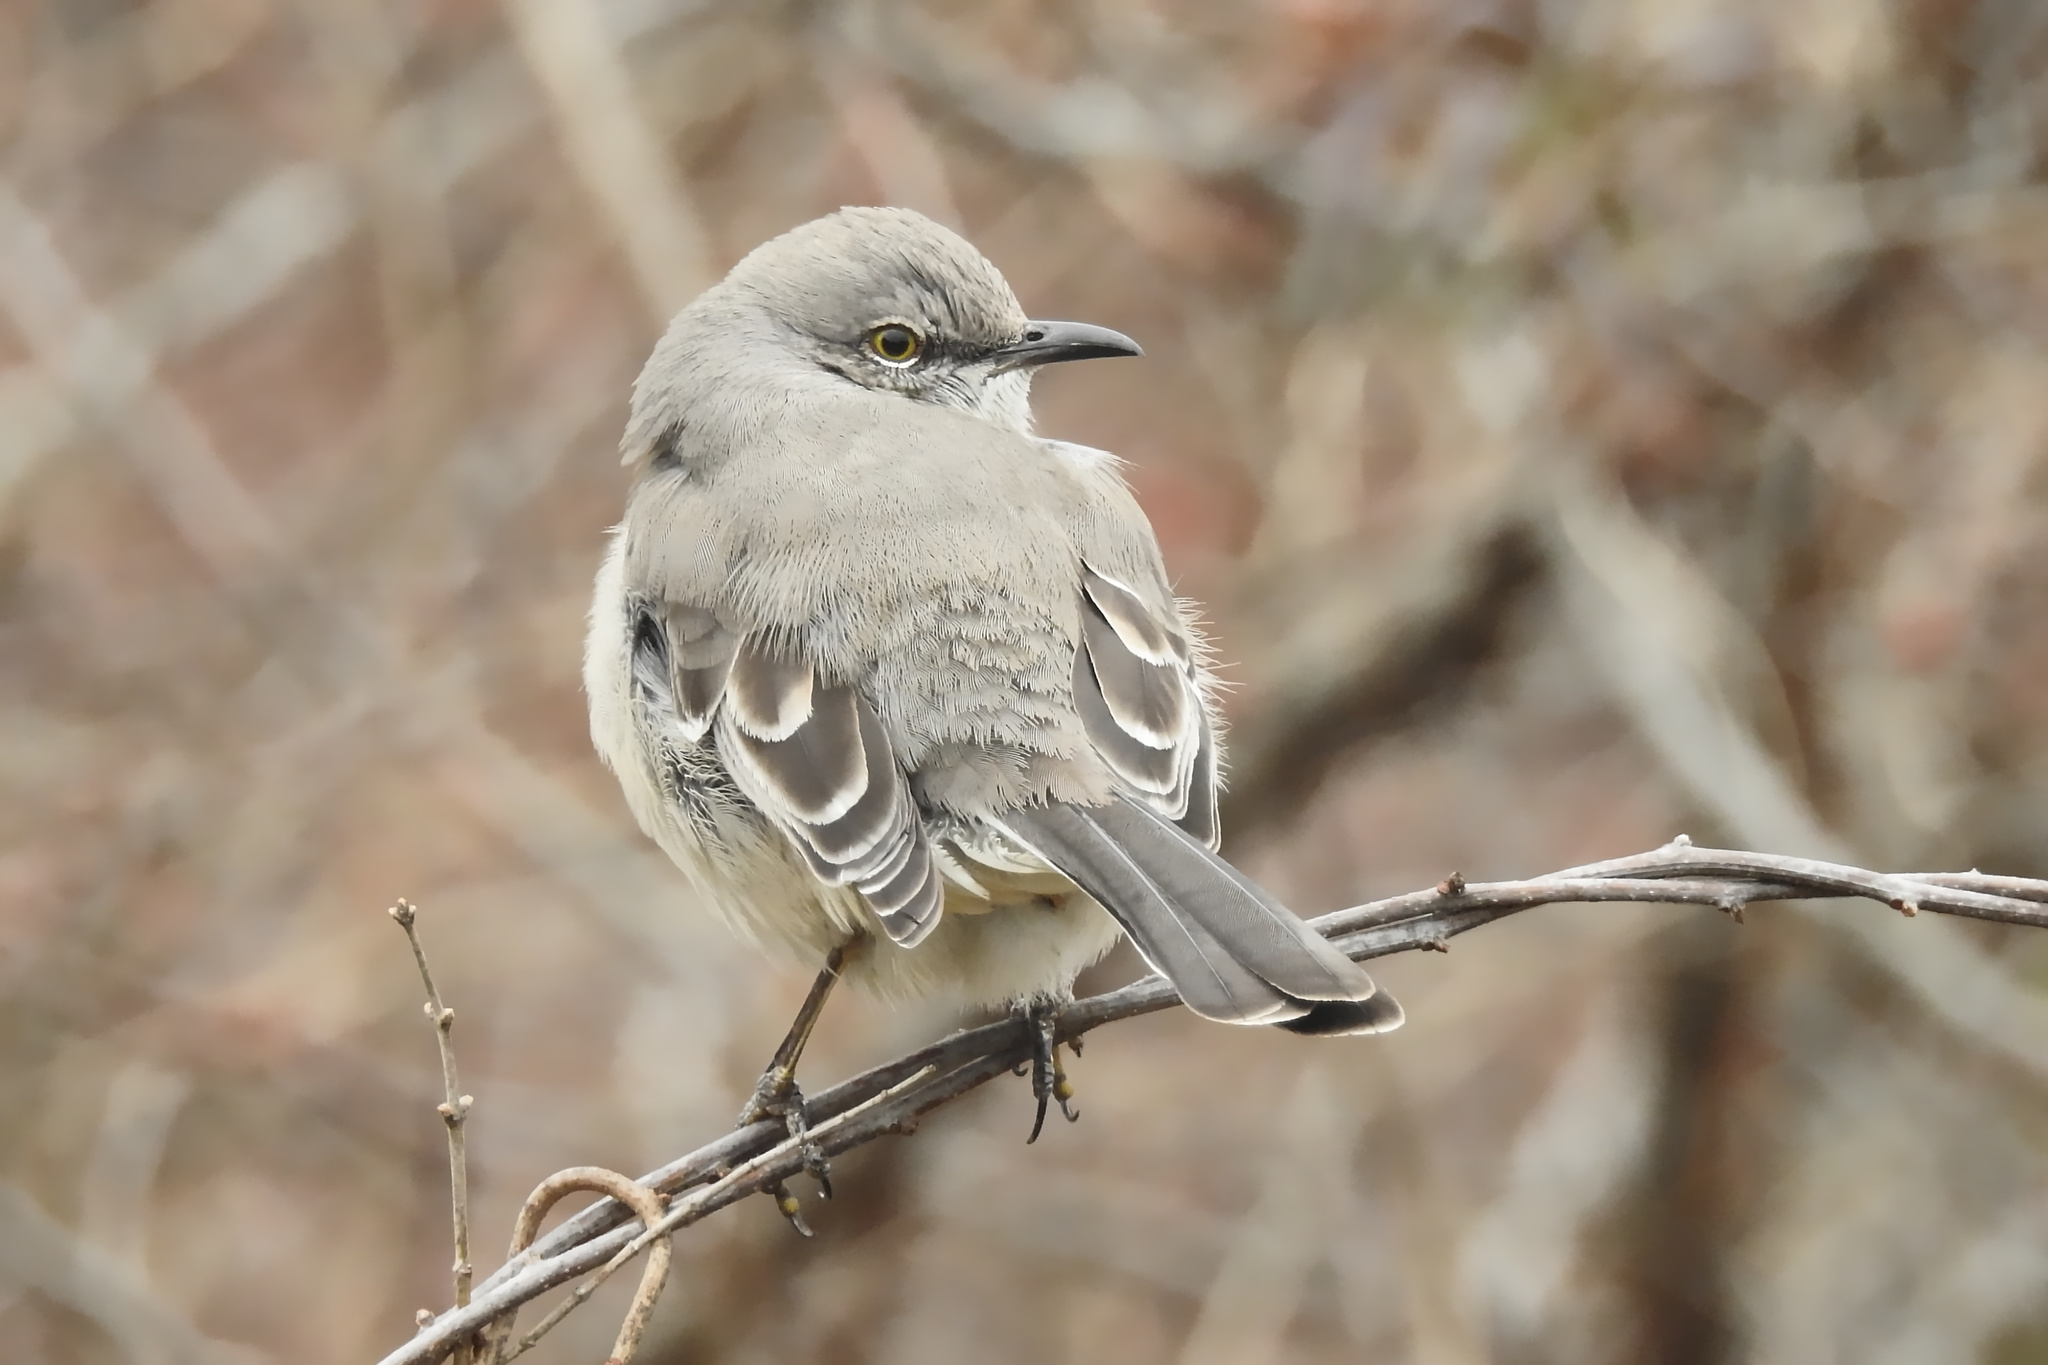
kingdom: Animalia
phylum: Chordata
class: Aves
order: Passeriformes
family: Mimidae
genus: Mimus
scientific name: Mimus polyglottos
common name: Northern mockingbird
